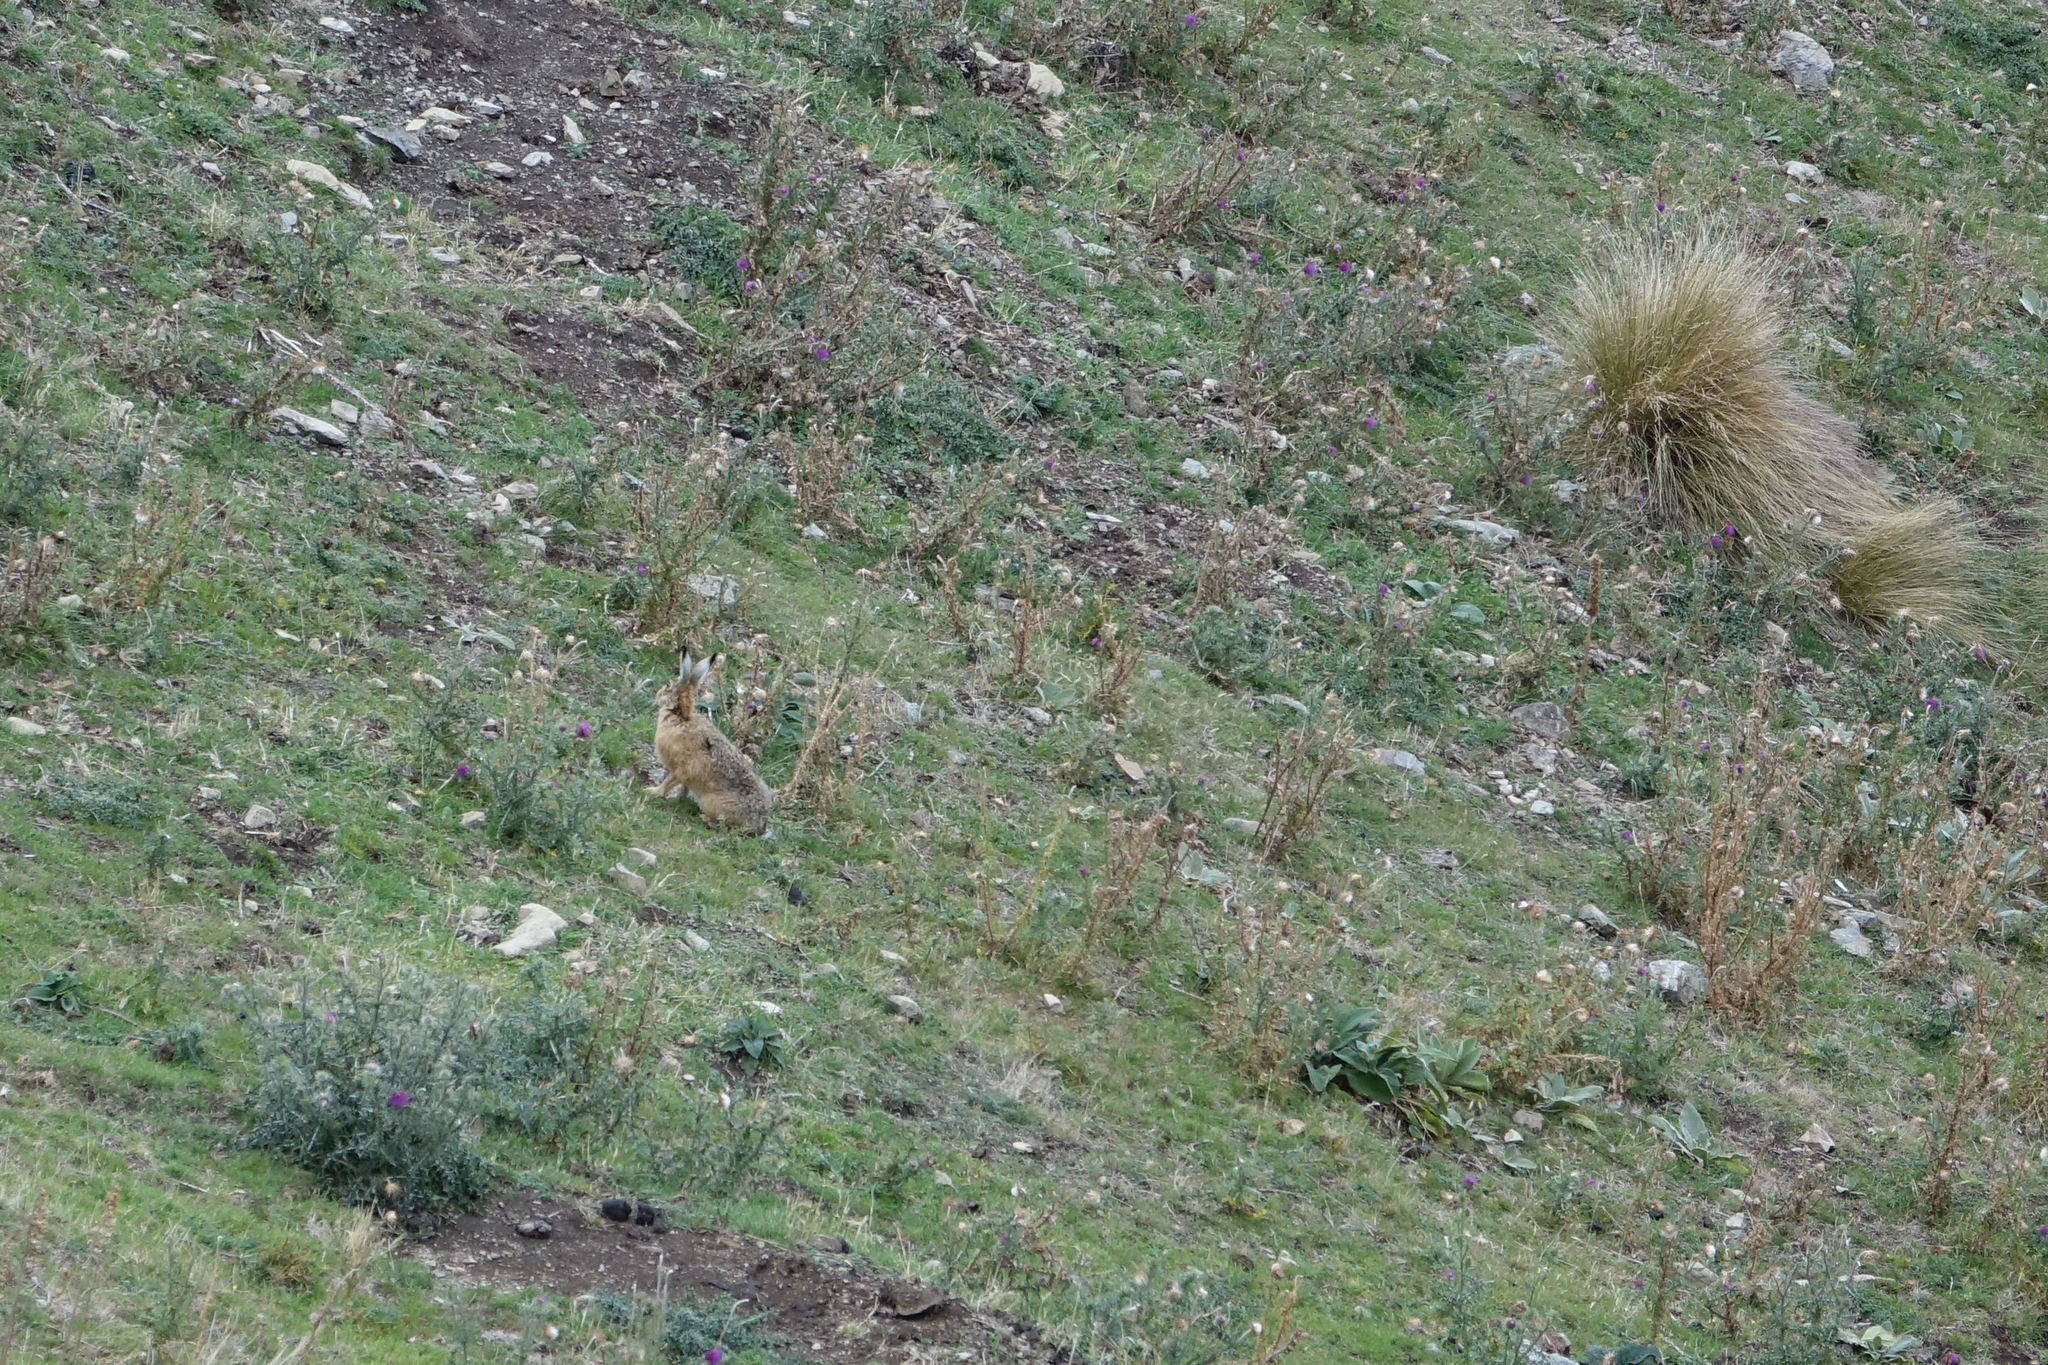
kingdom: Animalia
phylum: Chordata
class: Mammalia
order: Lagomorpha
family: Leporidae
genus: Lepus
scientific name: Lepus europaeus
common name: European hare
